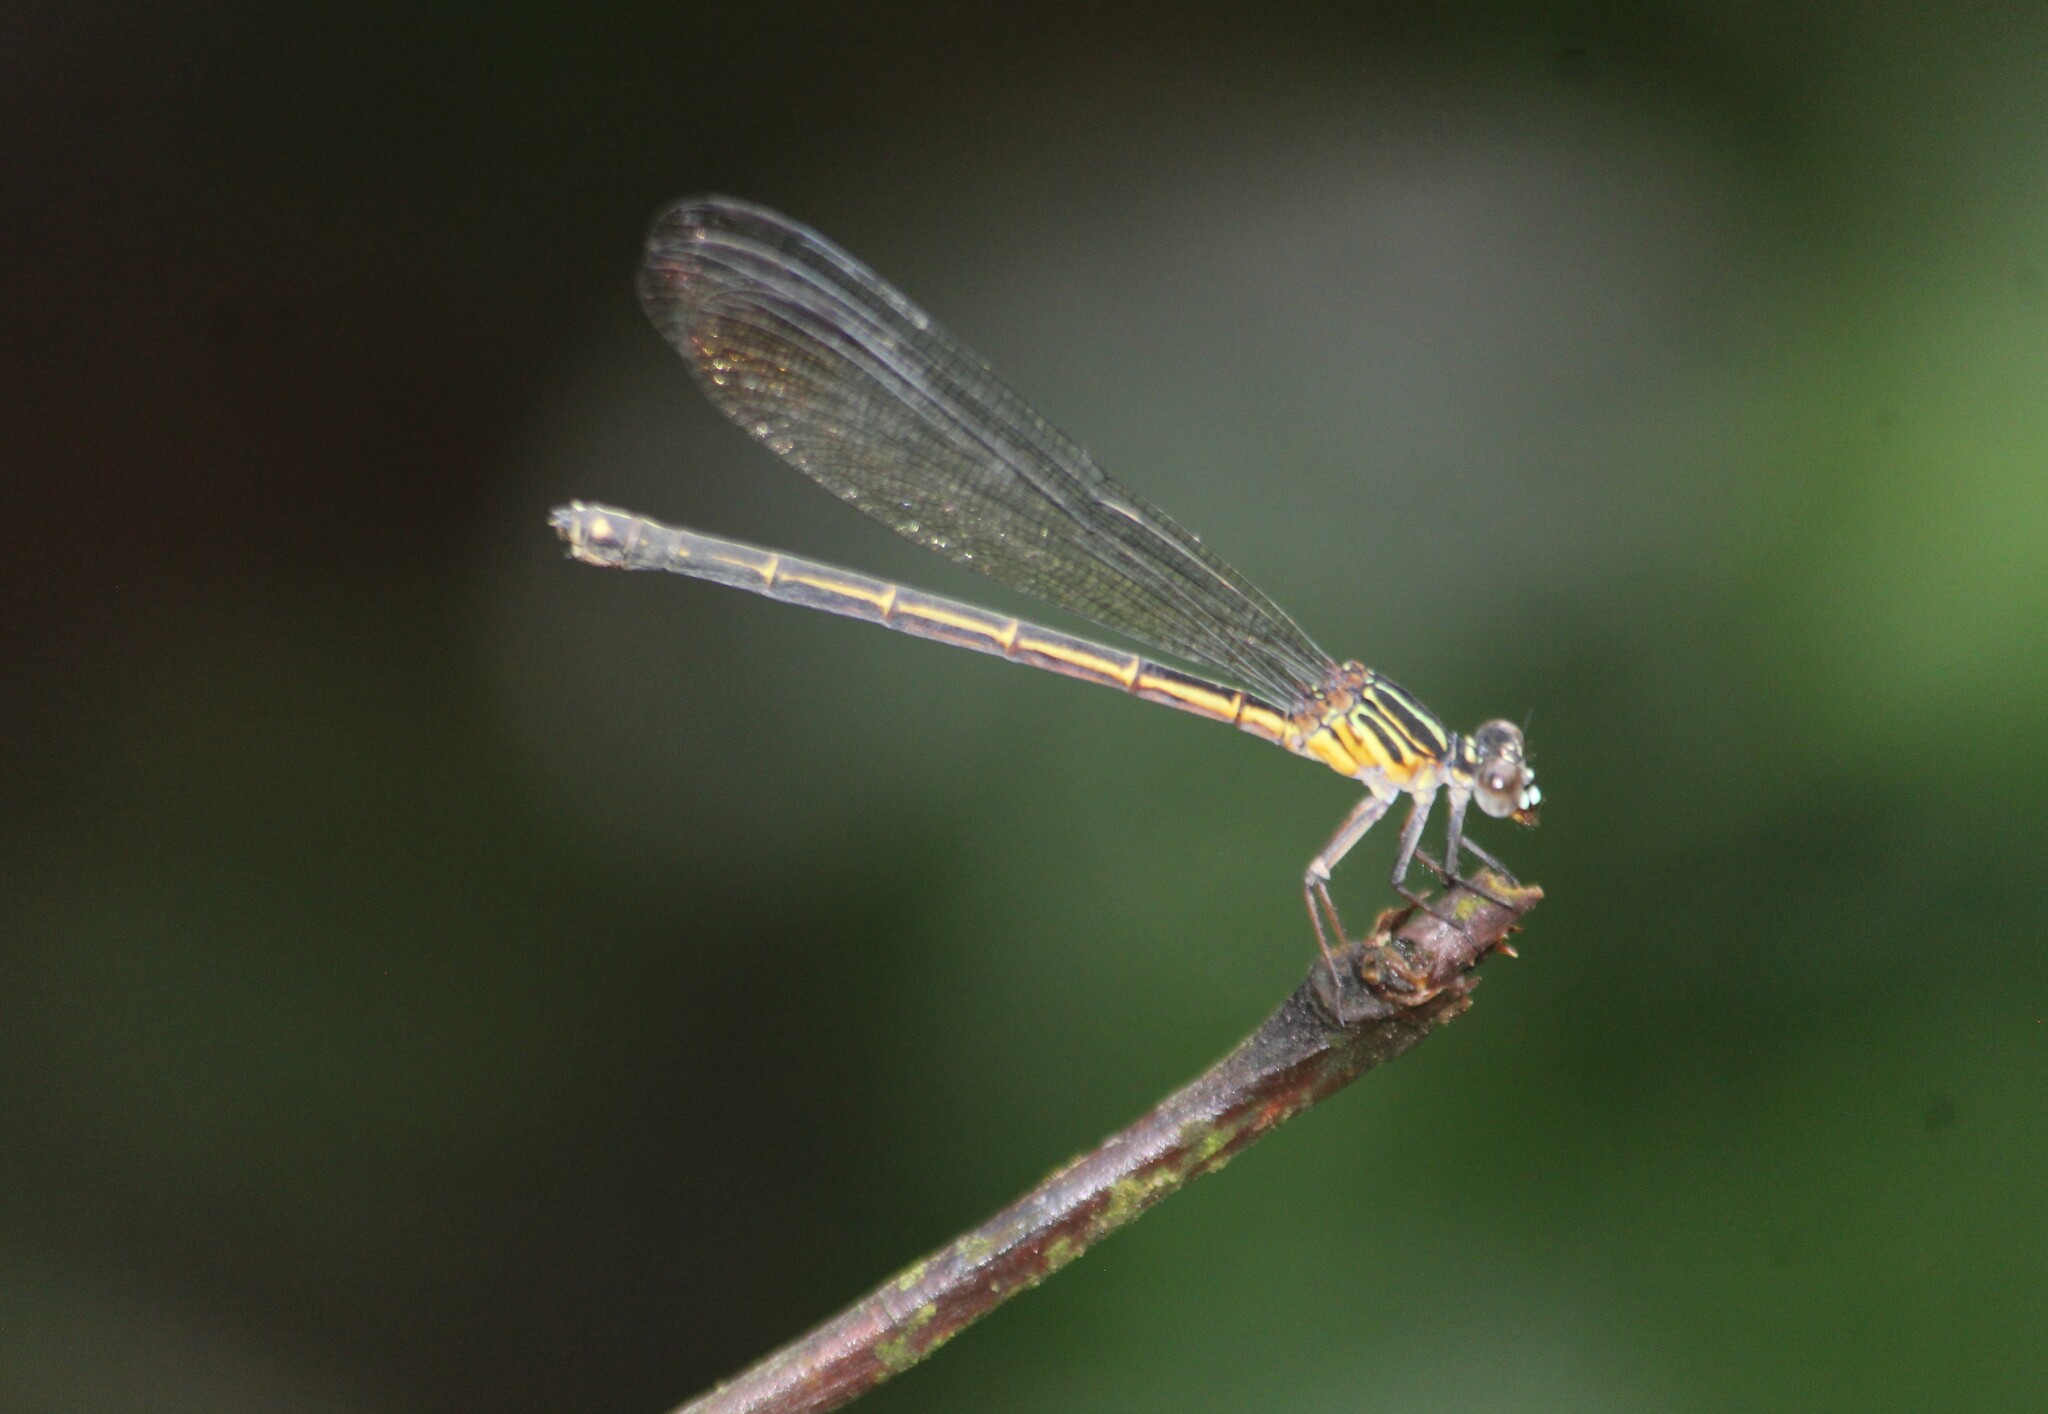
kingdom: Animalia
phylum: Arthropoda
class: Insecta
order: Odonata
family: Euphaeidae
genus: Euphaea
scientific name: Euphaea fraseri
